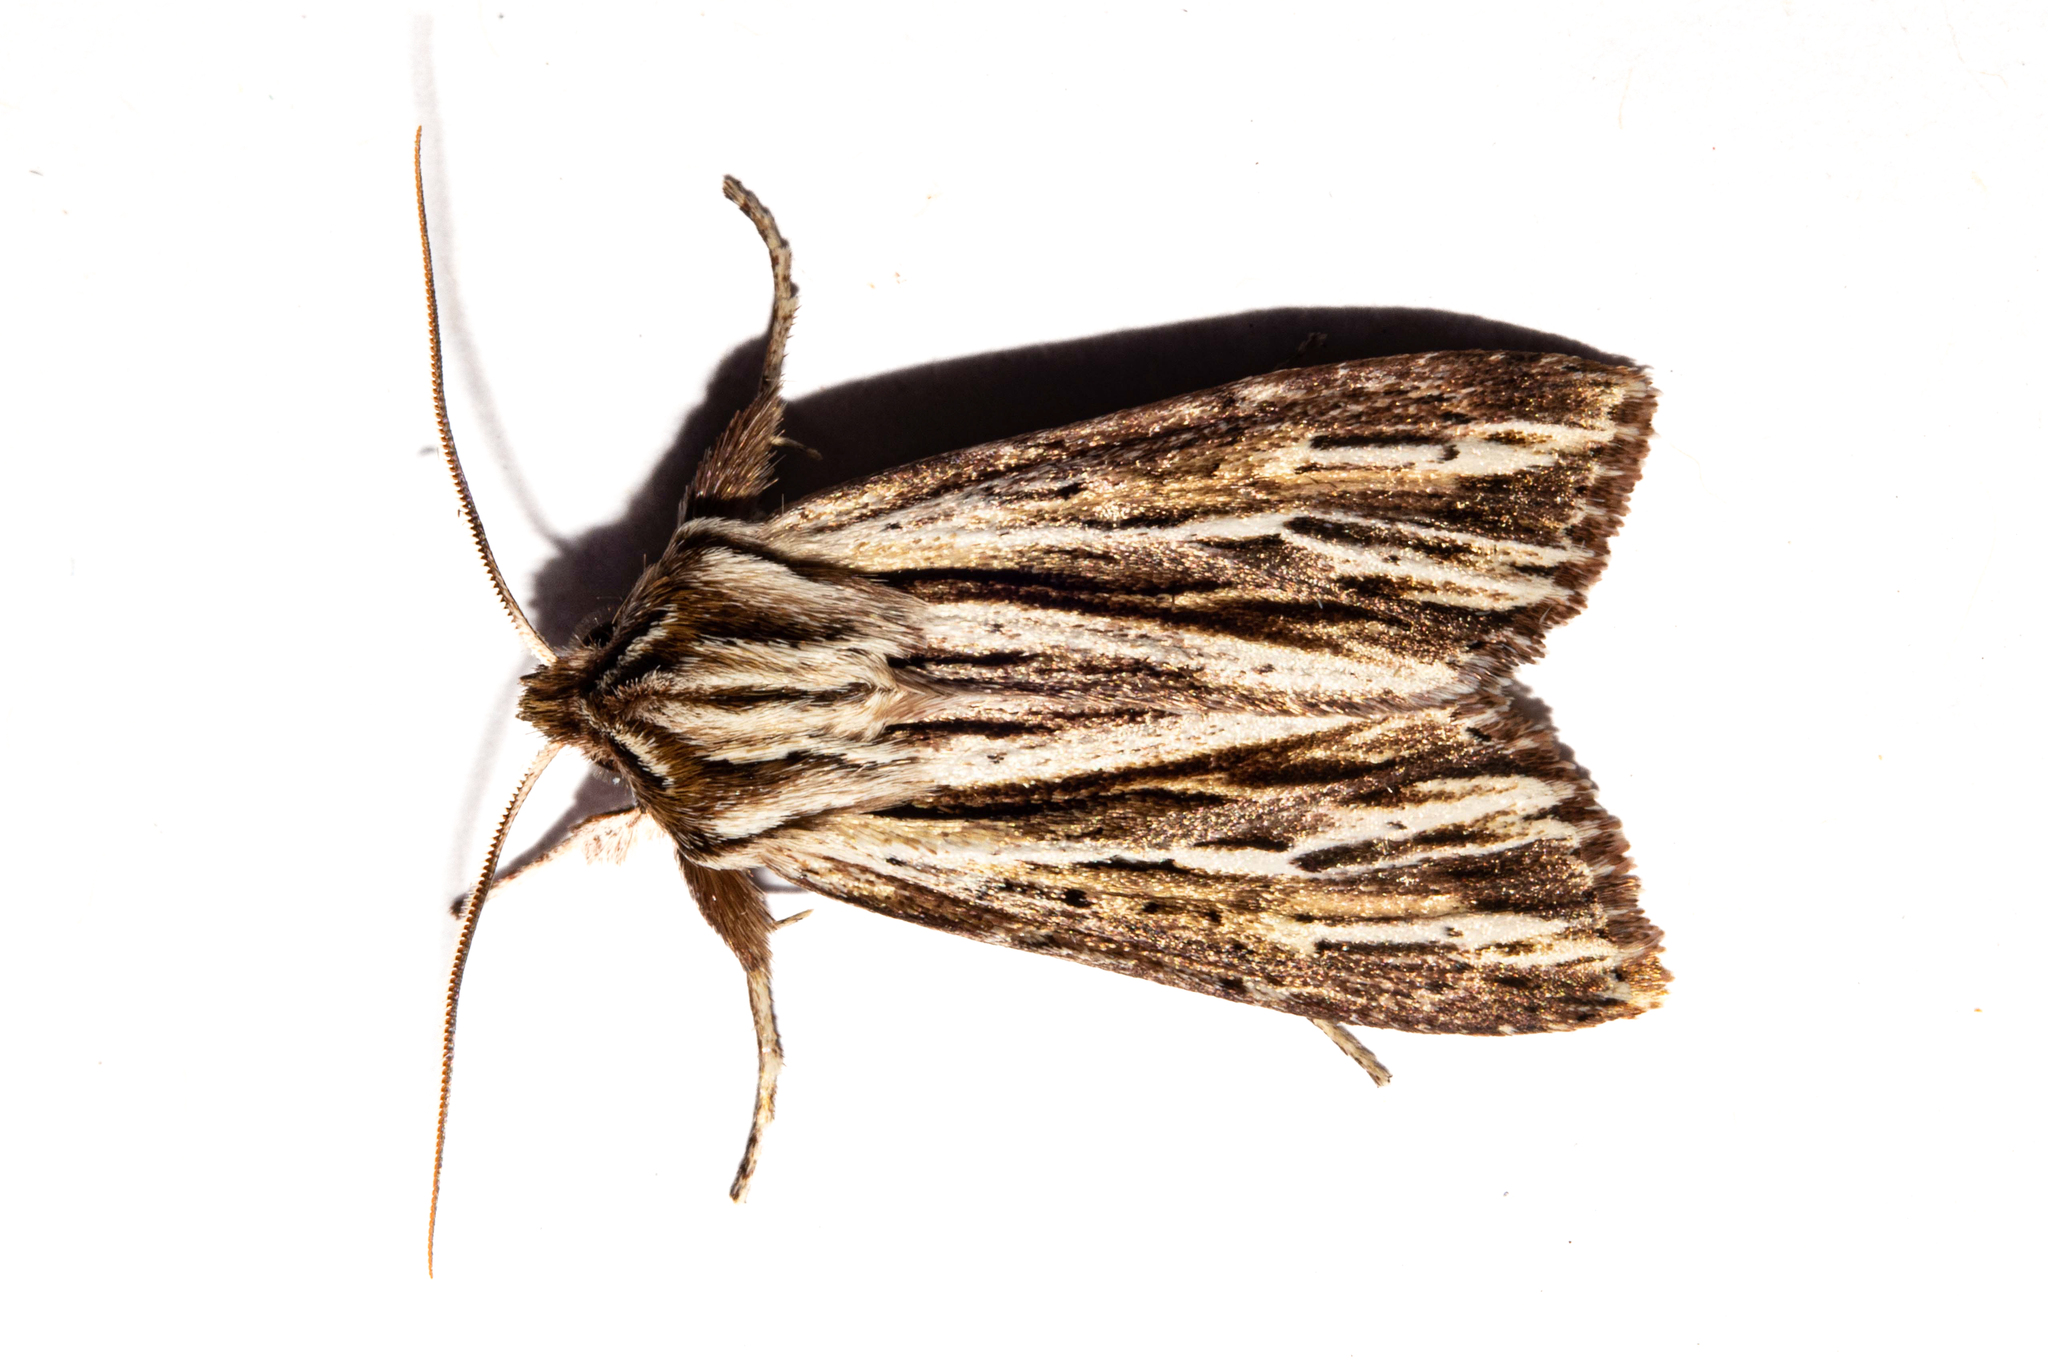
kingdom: Animalia
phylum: Arthropoda
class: Insecta
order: Lepidoptera
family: Noctuidae
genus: Ichneutica
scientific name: Ichneutica
